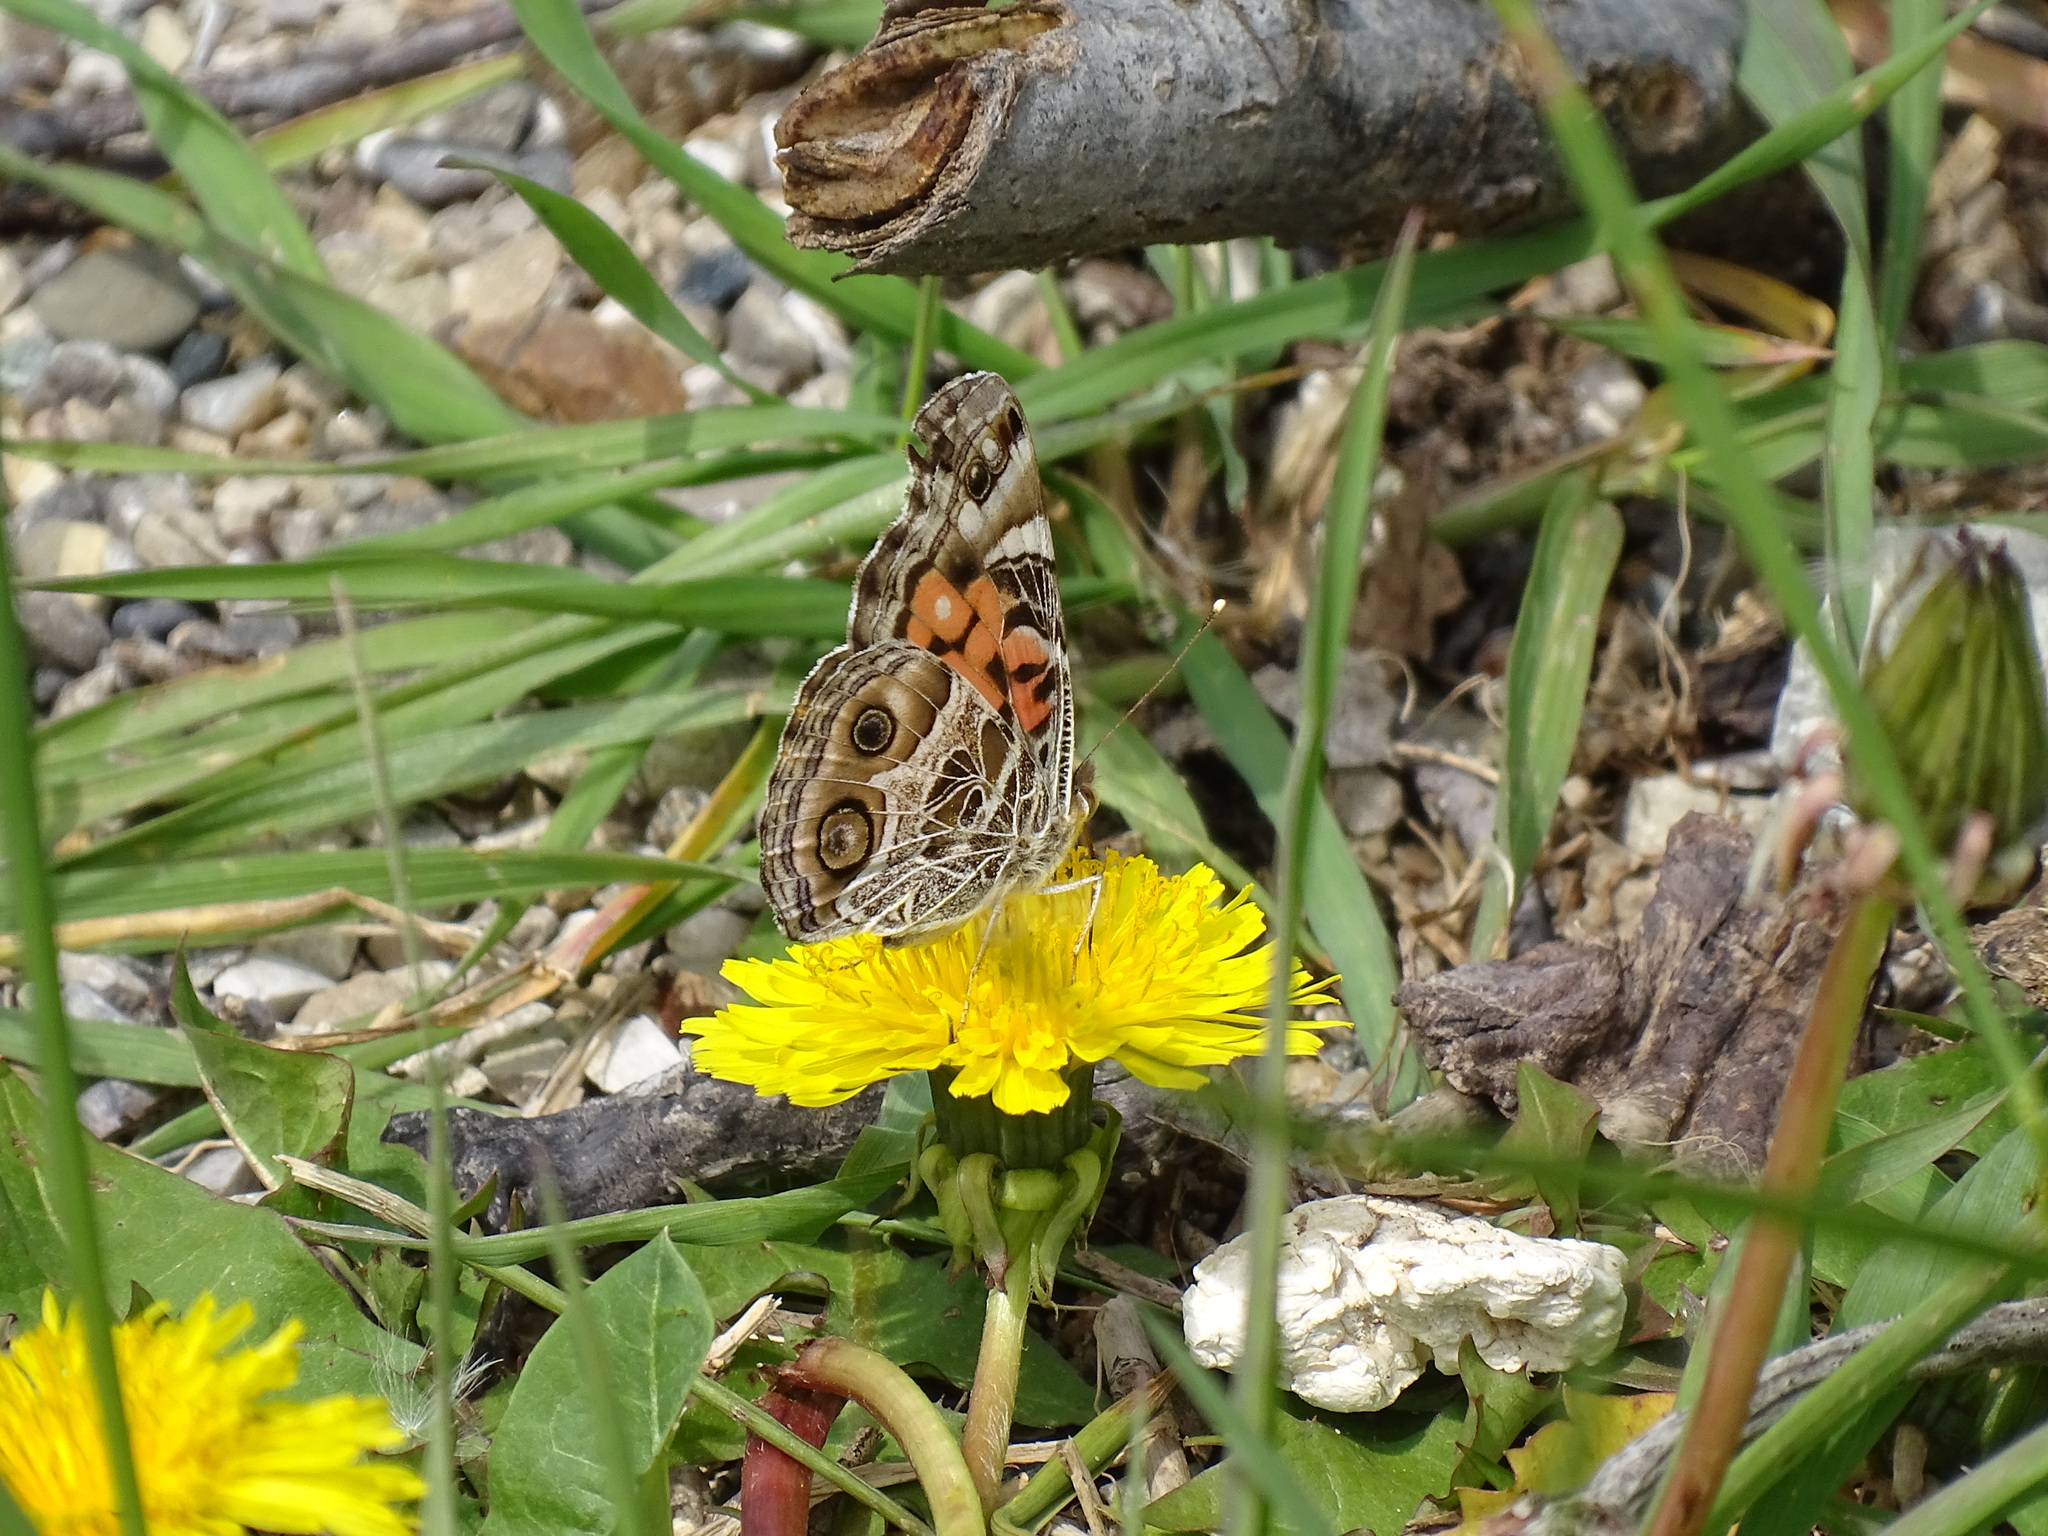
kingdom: Animalia
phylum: Arthropoda
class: Insecta
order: Lepidoptera
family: Nymphalidae
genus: Vanessa
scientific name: Vanessa virginiensis
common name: American lady
